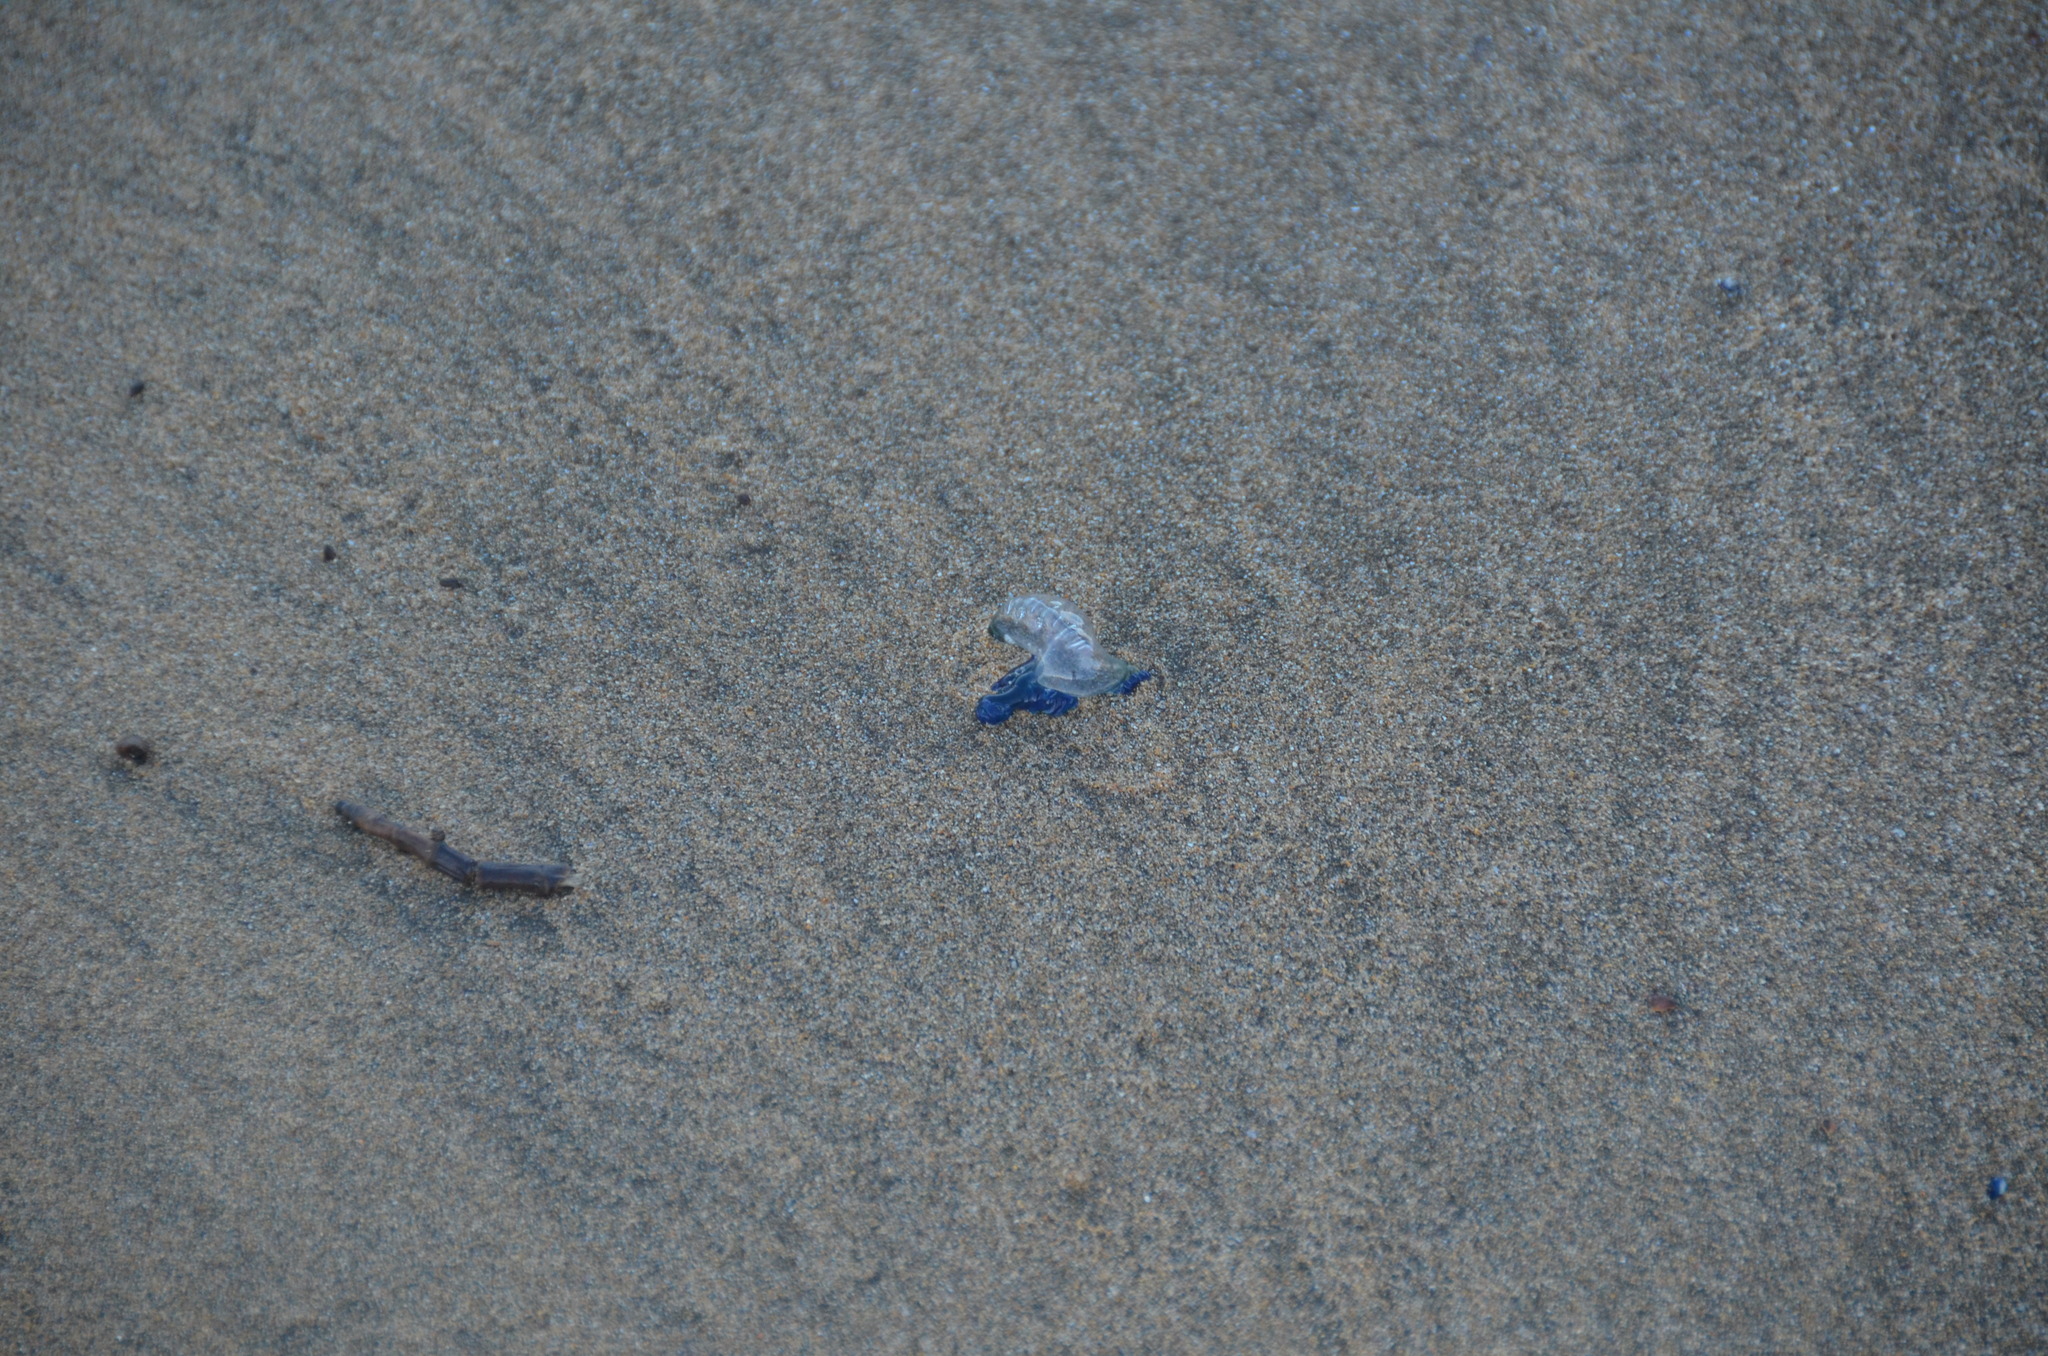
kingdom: Animalia
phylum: Cnidaria
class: Hydrozoa
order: Siphonophorae
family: Physaliidae
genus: Physalia
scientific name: Physalia physalis
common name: Portuguese man-of-war
